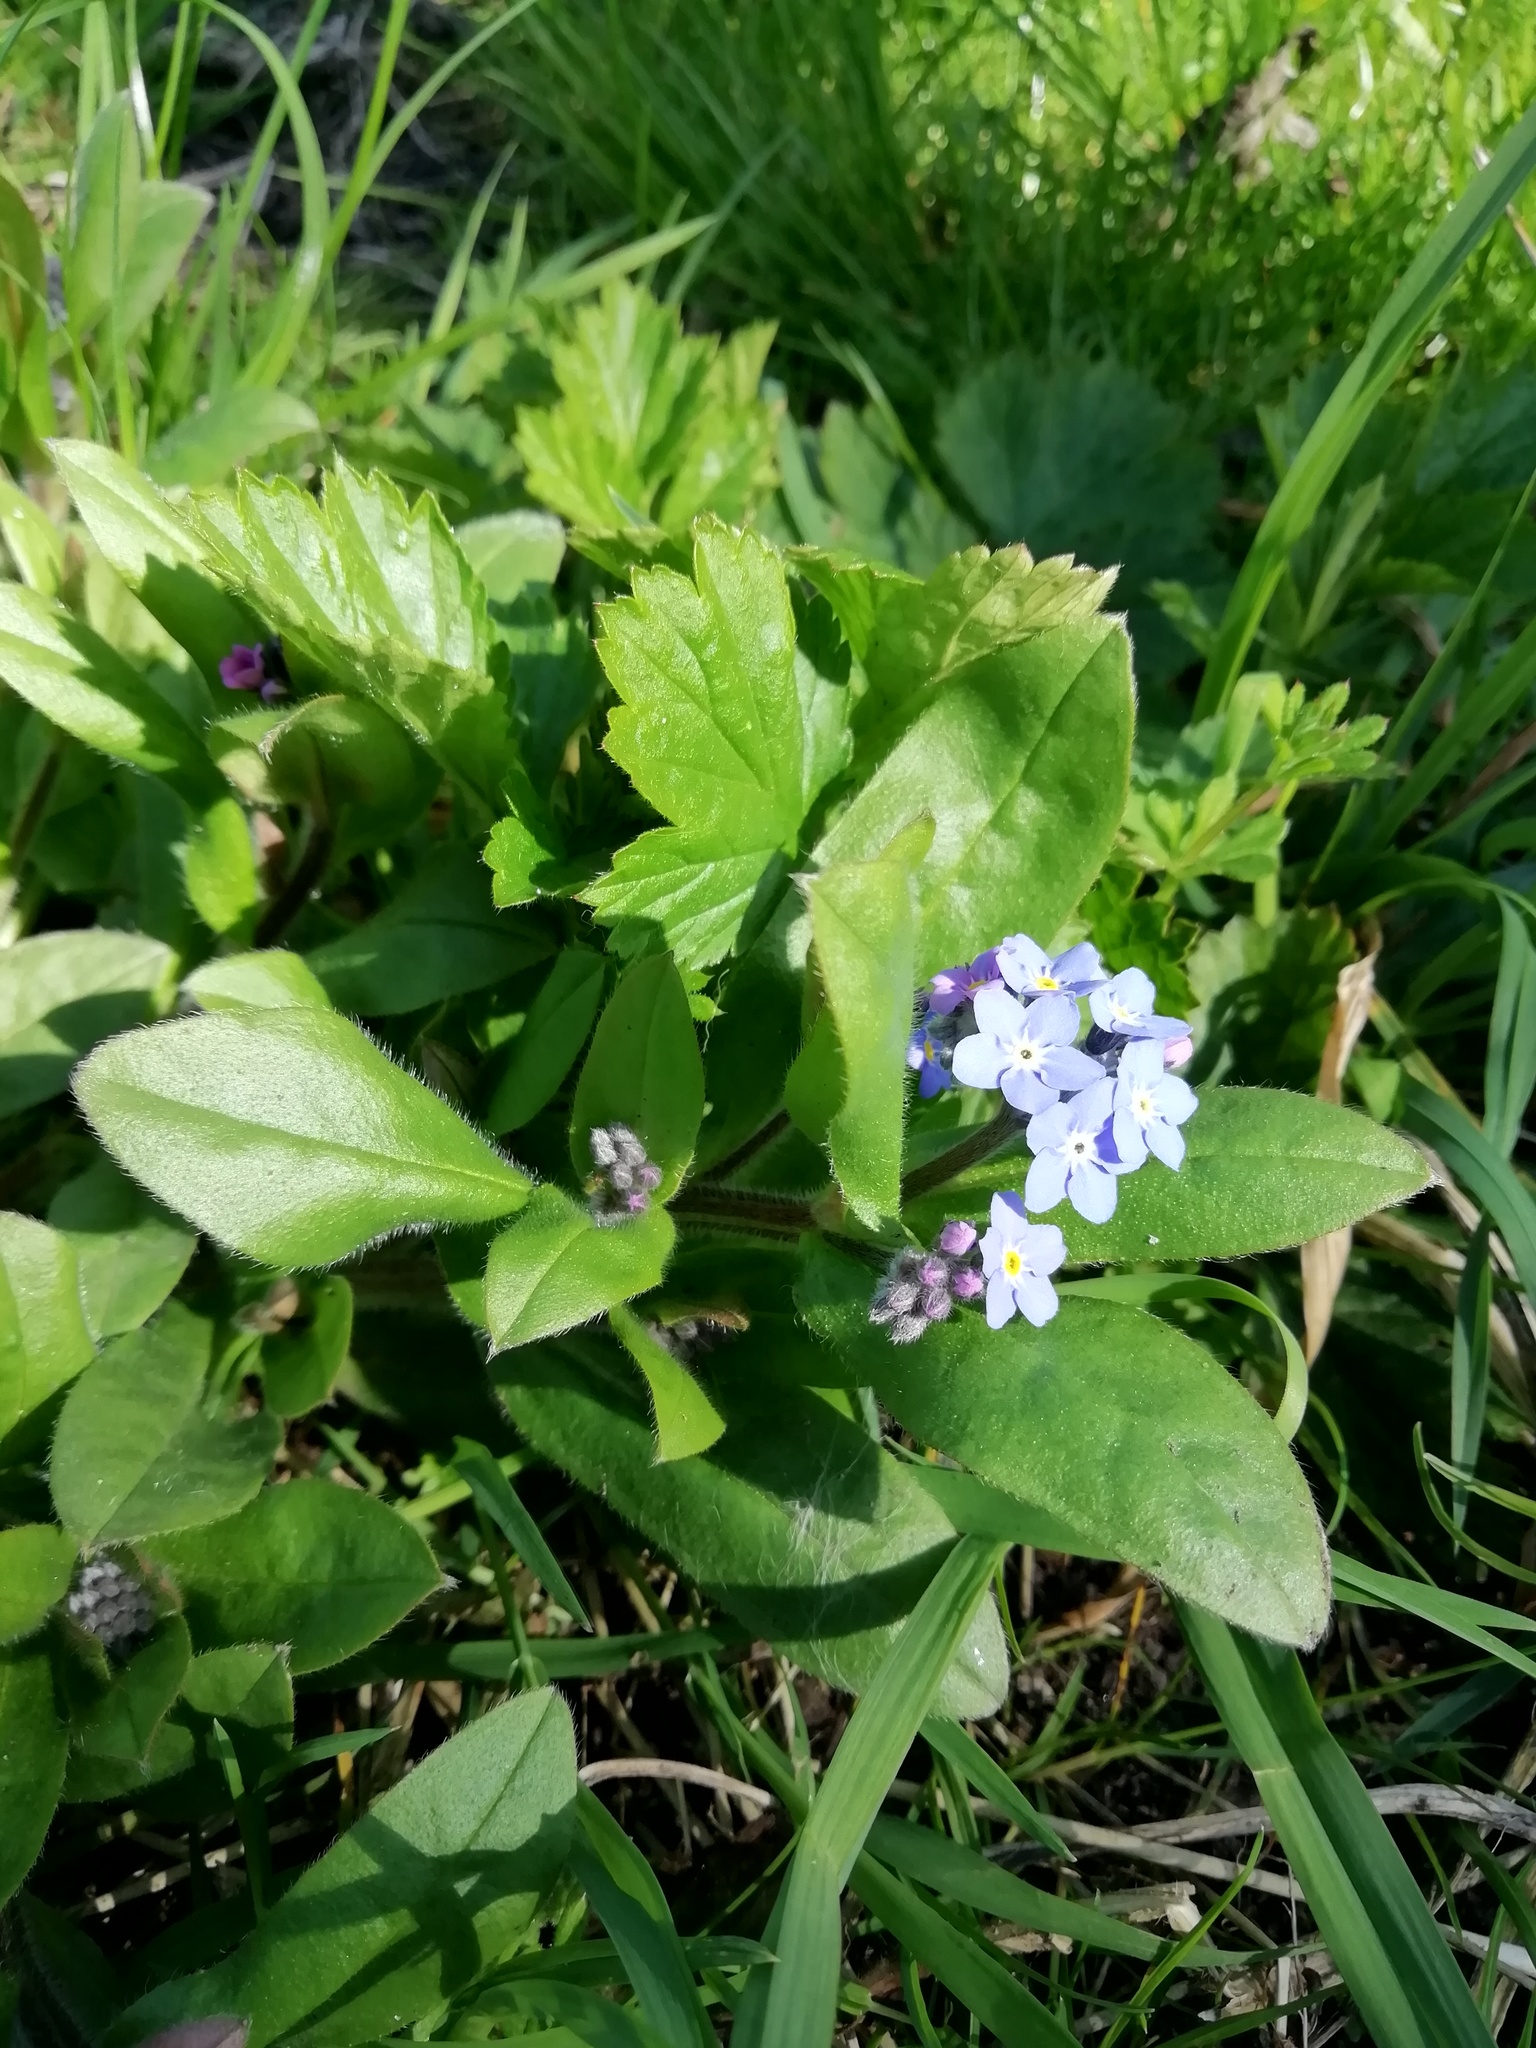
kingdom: Plantae
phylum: Tracheophyta
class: Magnoliopsida
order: Boraginales
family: Boraginaceae
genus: Myosotis
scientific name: Myosotis sylvatica
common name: Wood forget-me-not
